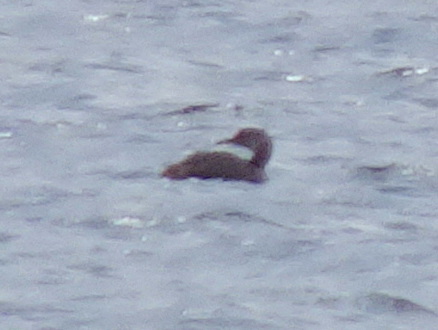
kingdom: Animalia
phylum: Chordata
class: Aves
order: Podicipediformes
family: Podicipedidae
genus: Podiceps
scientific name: Podiceps grisegena
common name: Red-necked grebe
